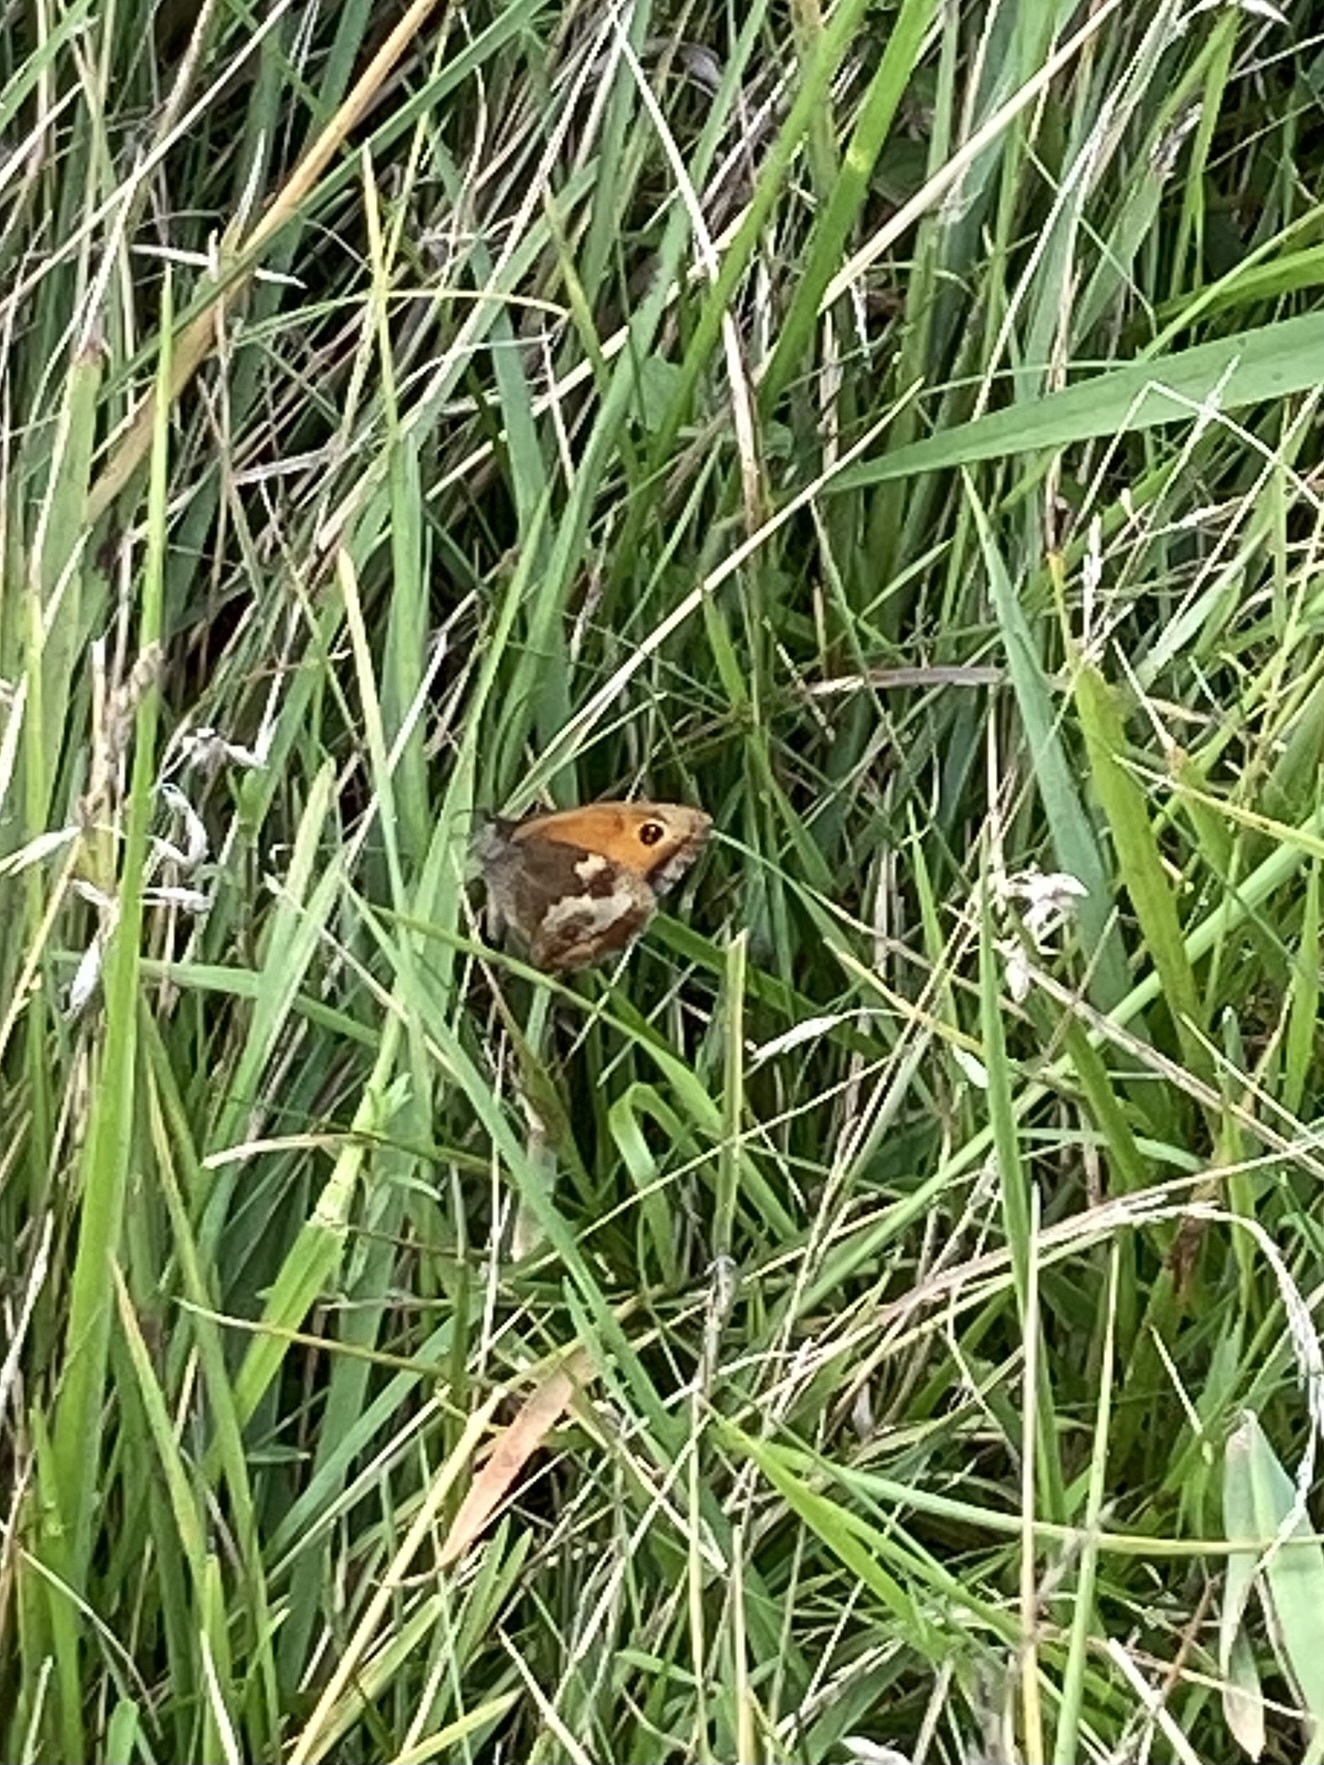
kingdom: Animalia
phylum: Arthropoda
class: Insecta
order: Lepidoptera
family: Nymphalidae
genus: Pyronia
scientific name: Pyronia tithonus
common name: Gatekeeper
